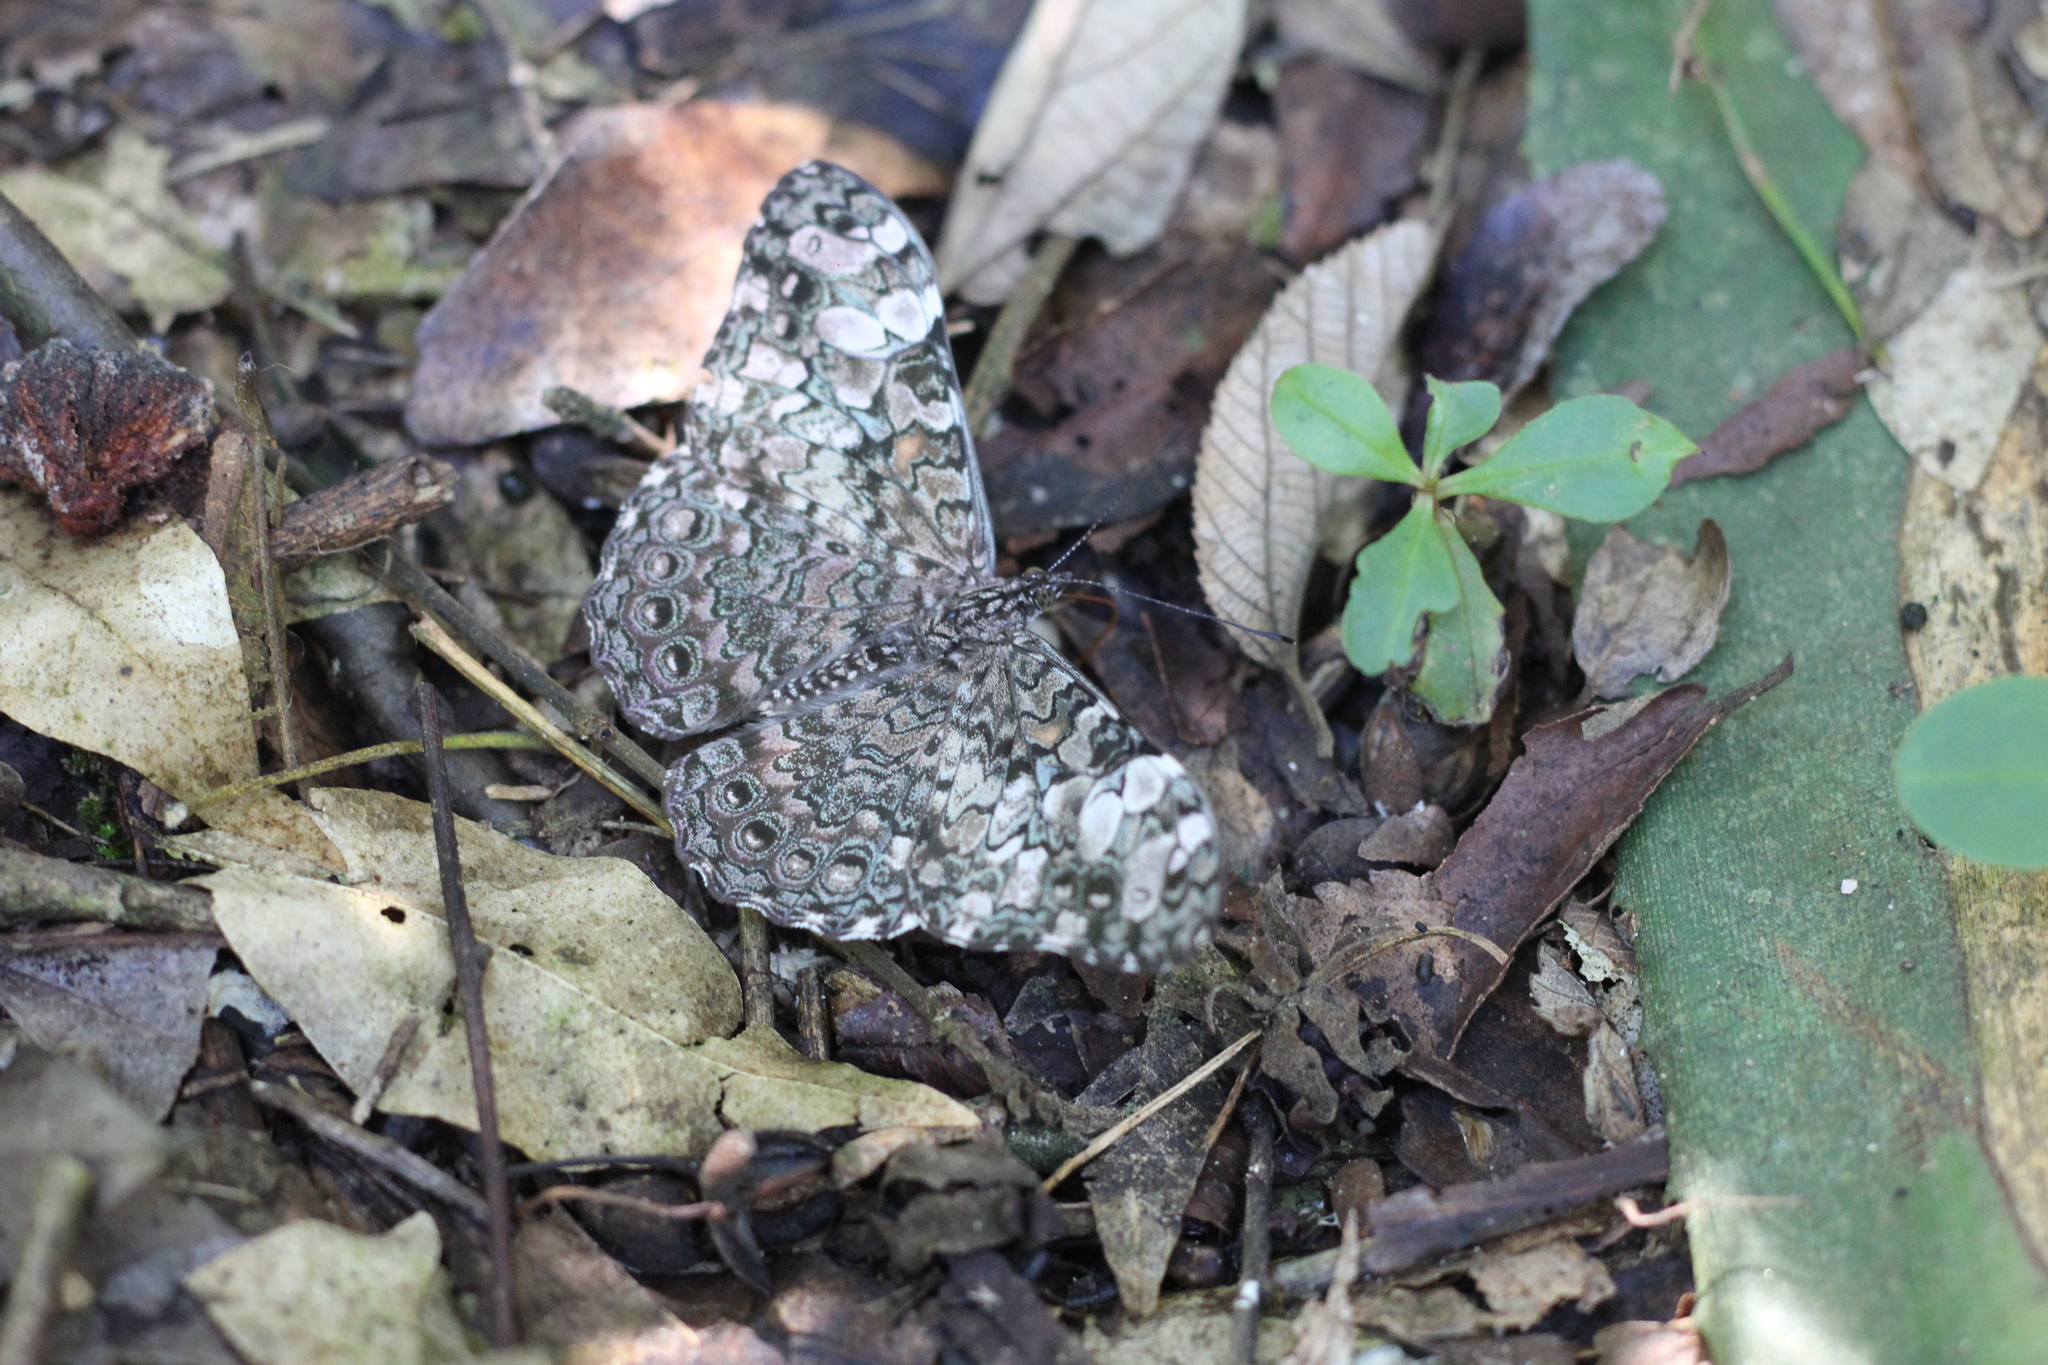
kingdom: Animalia
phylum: Arthropoda
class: Insecta
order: Lepidoptera
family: Nymphalidae
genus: Hamadryas
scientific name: Hamadryas epinome
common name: Epinome cracker
